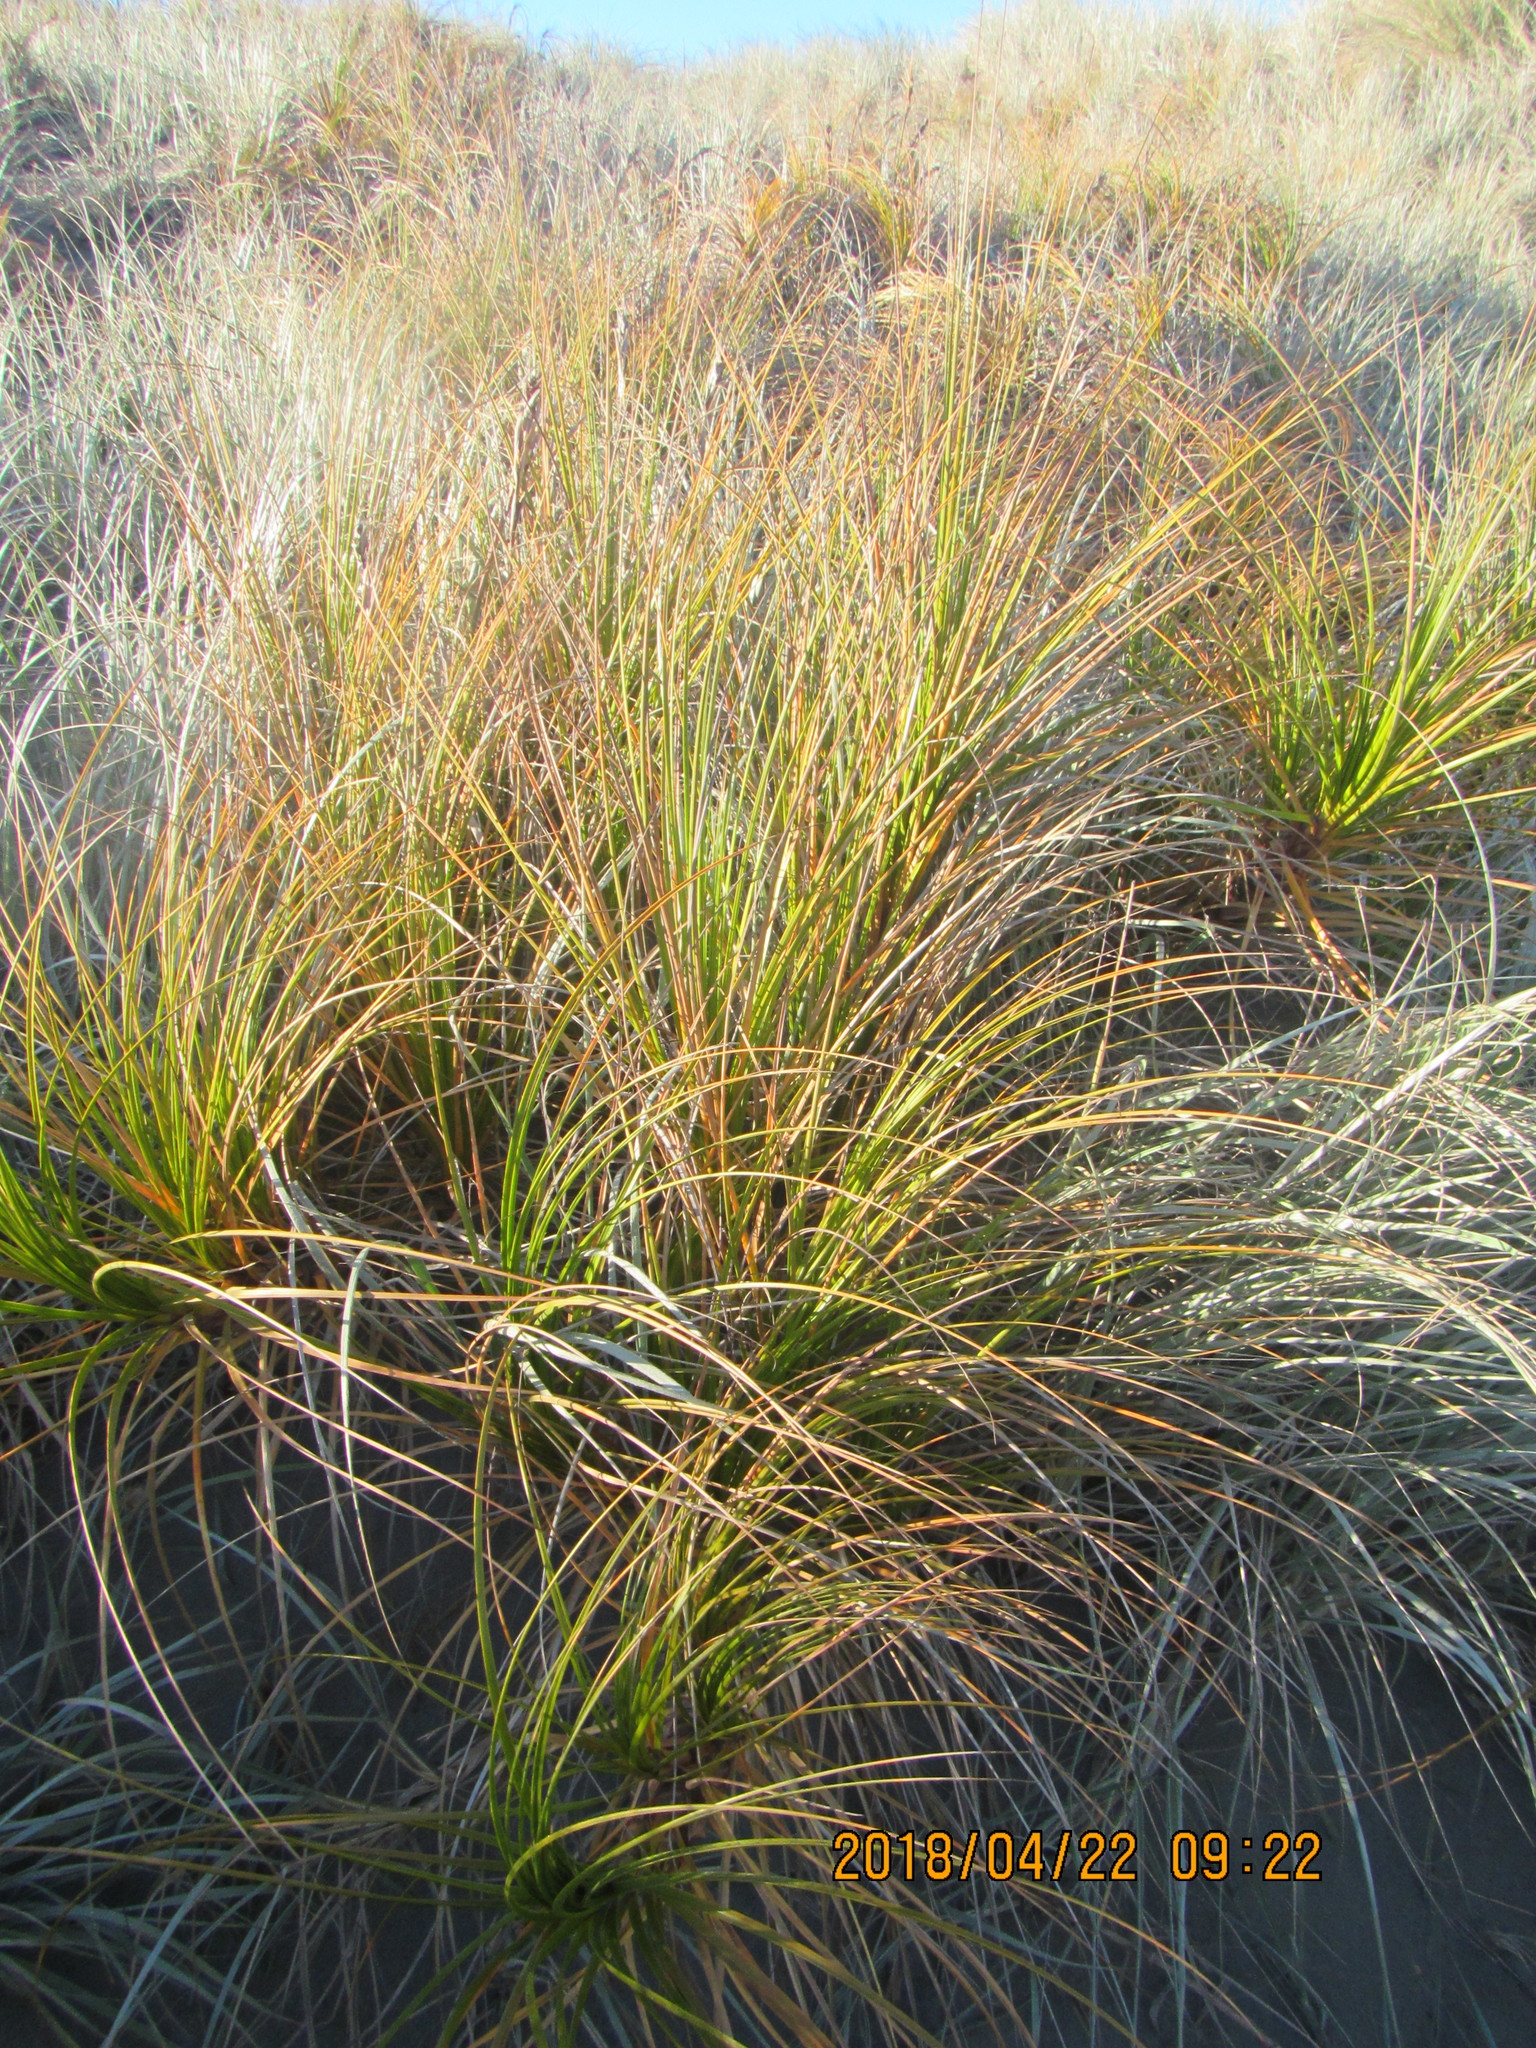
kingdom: Plantae
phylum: Tracheophyta
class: Liliopsida
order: Poales
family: Cyperaceae
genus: Ficinia
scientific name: Ficinia spiralis
